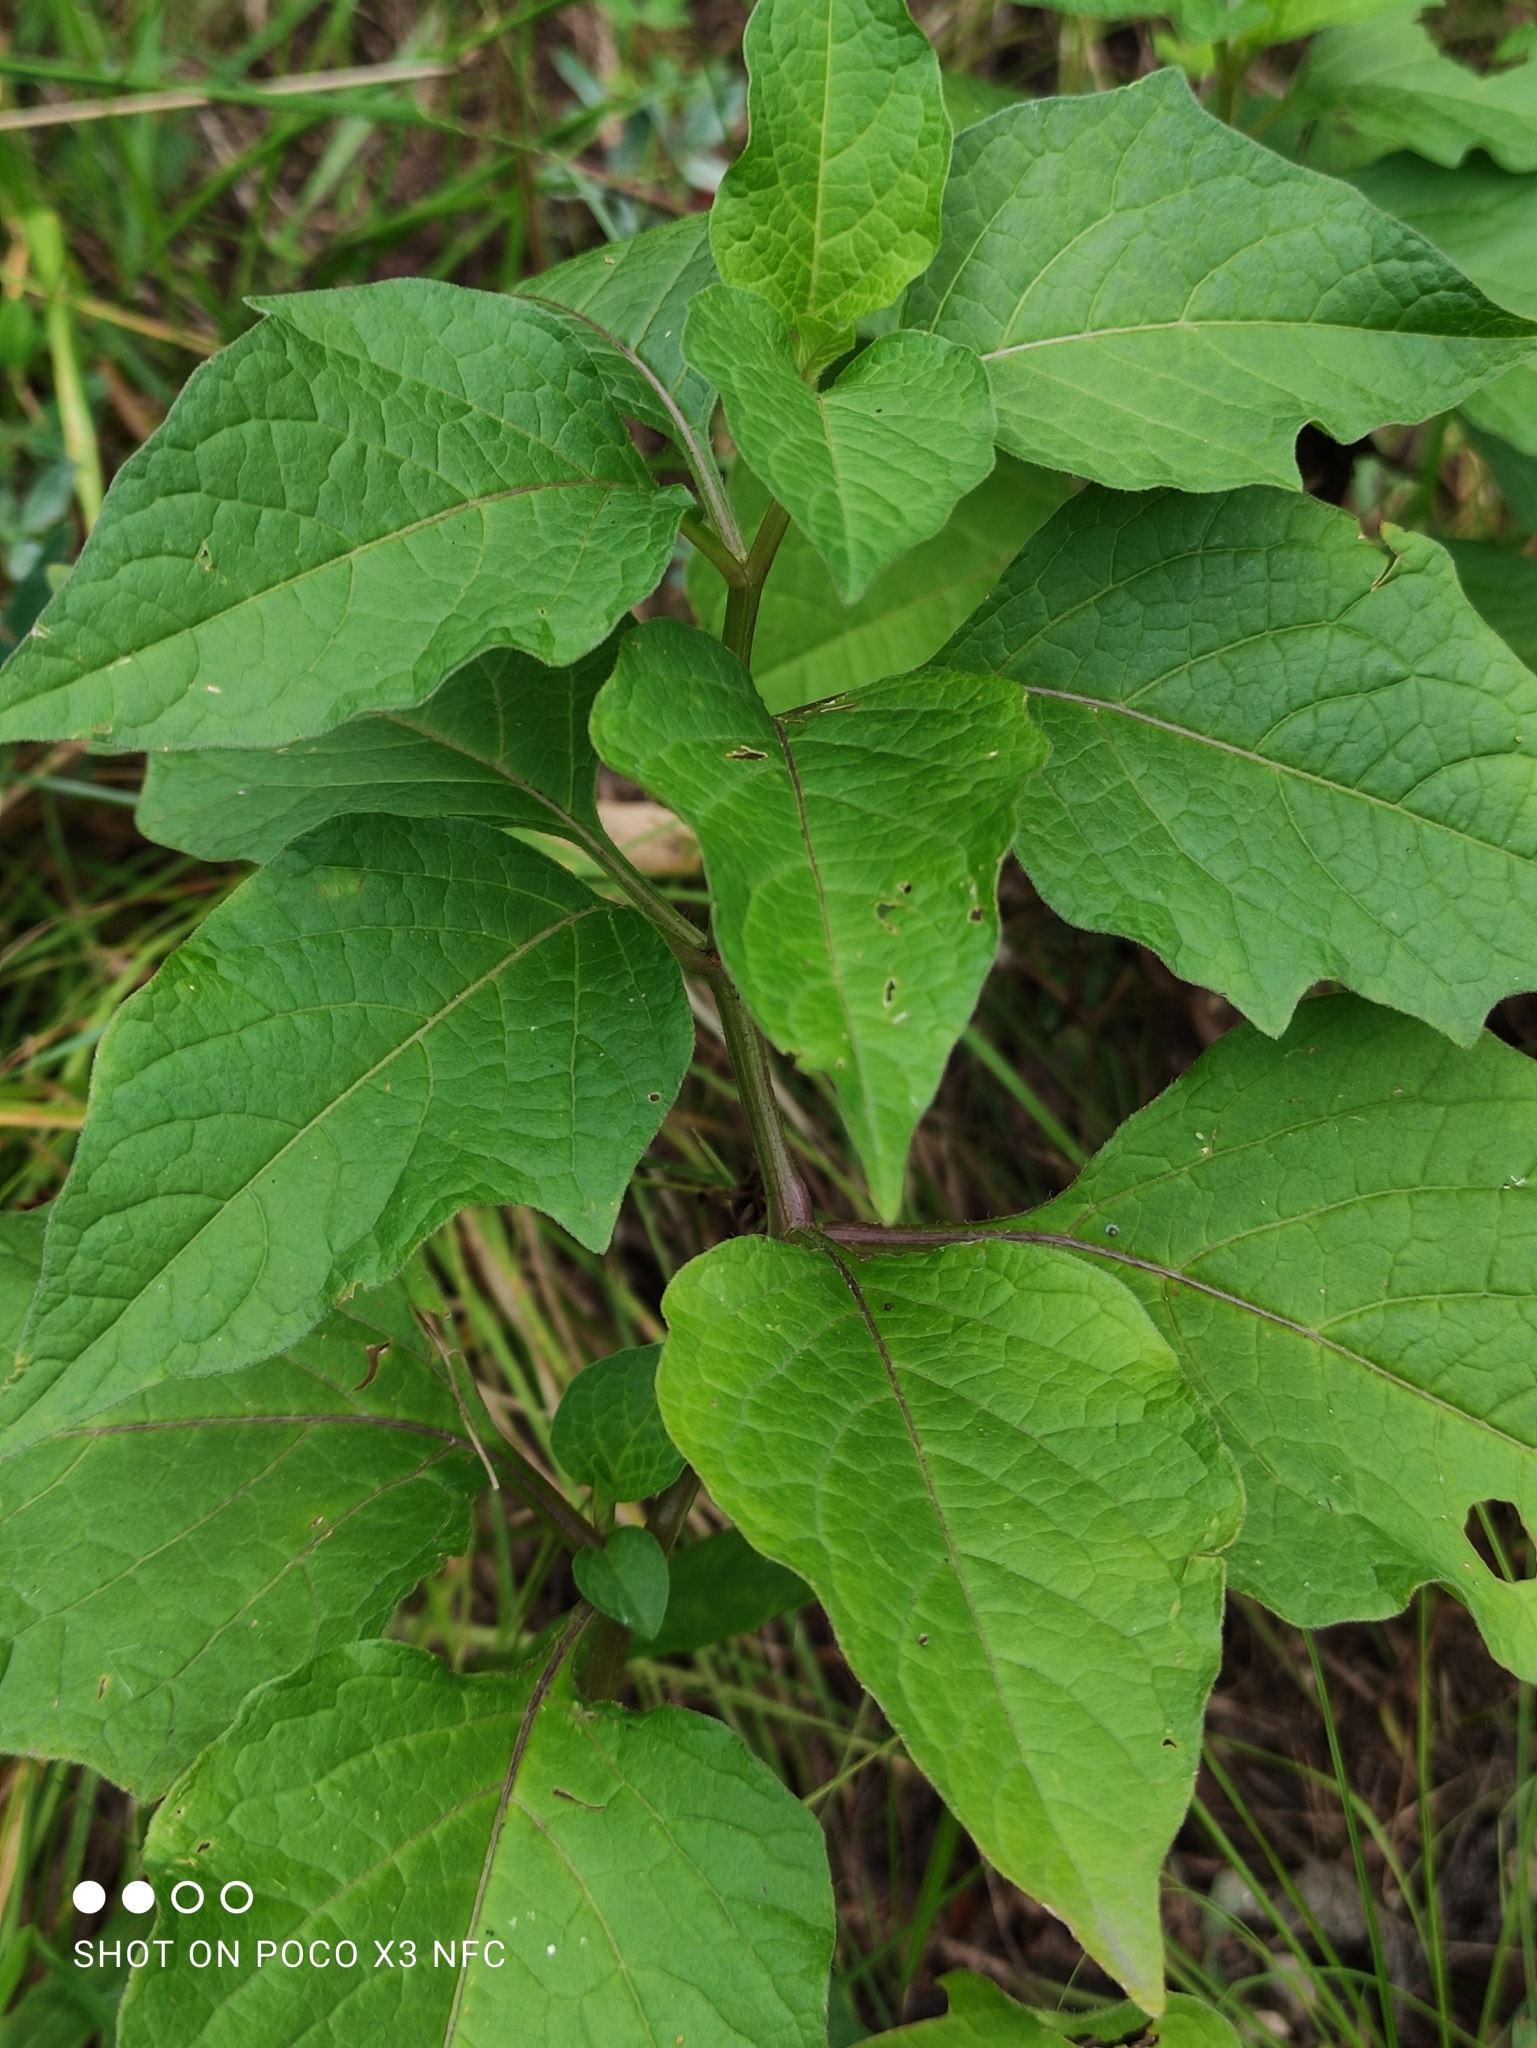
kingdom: Plantae
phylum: Tracheophyta
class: Magnoliopsida
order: Solanales
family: Solanaceae
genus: Alkekengi
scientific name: Alkekengi officinarum
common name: Japanese-lantern
